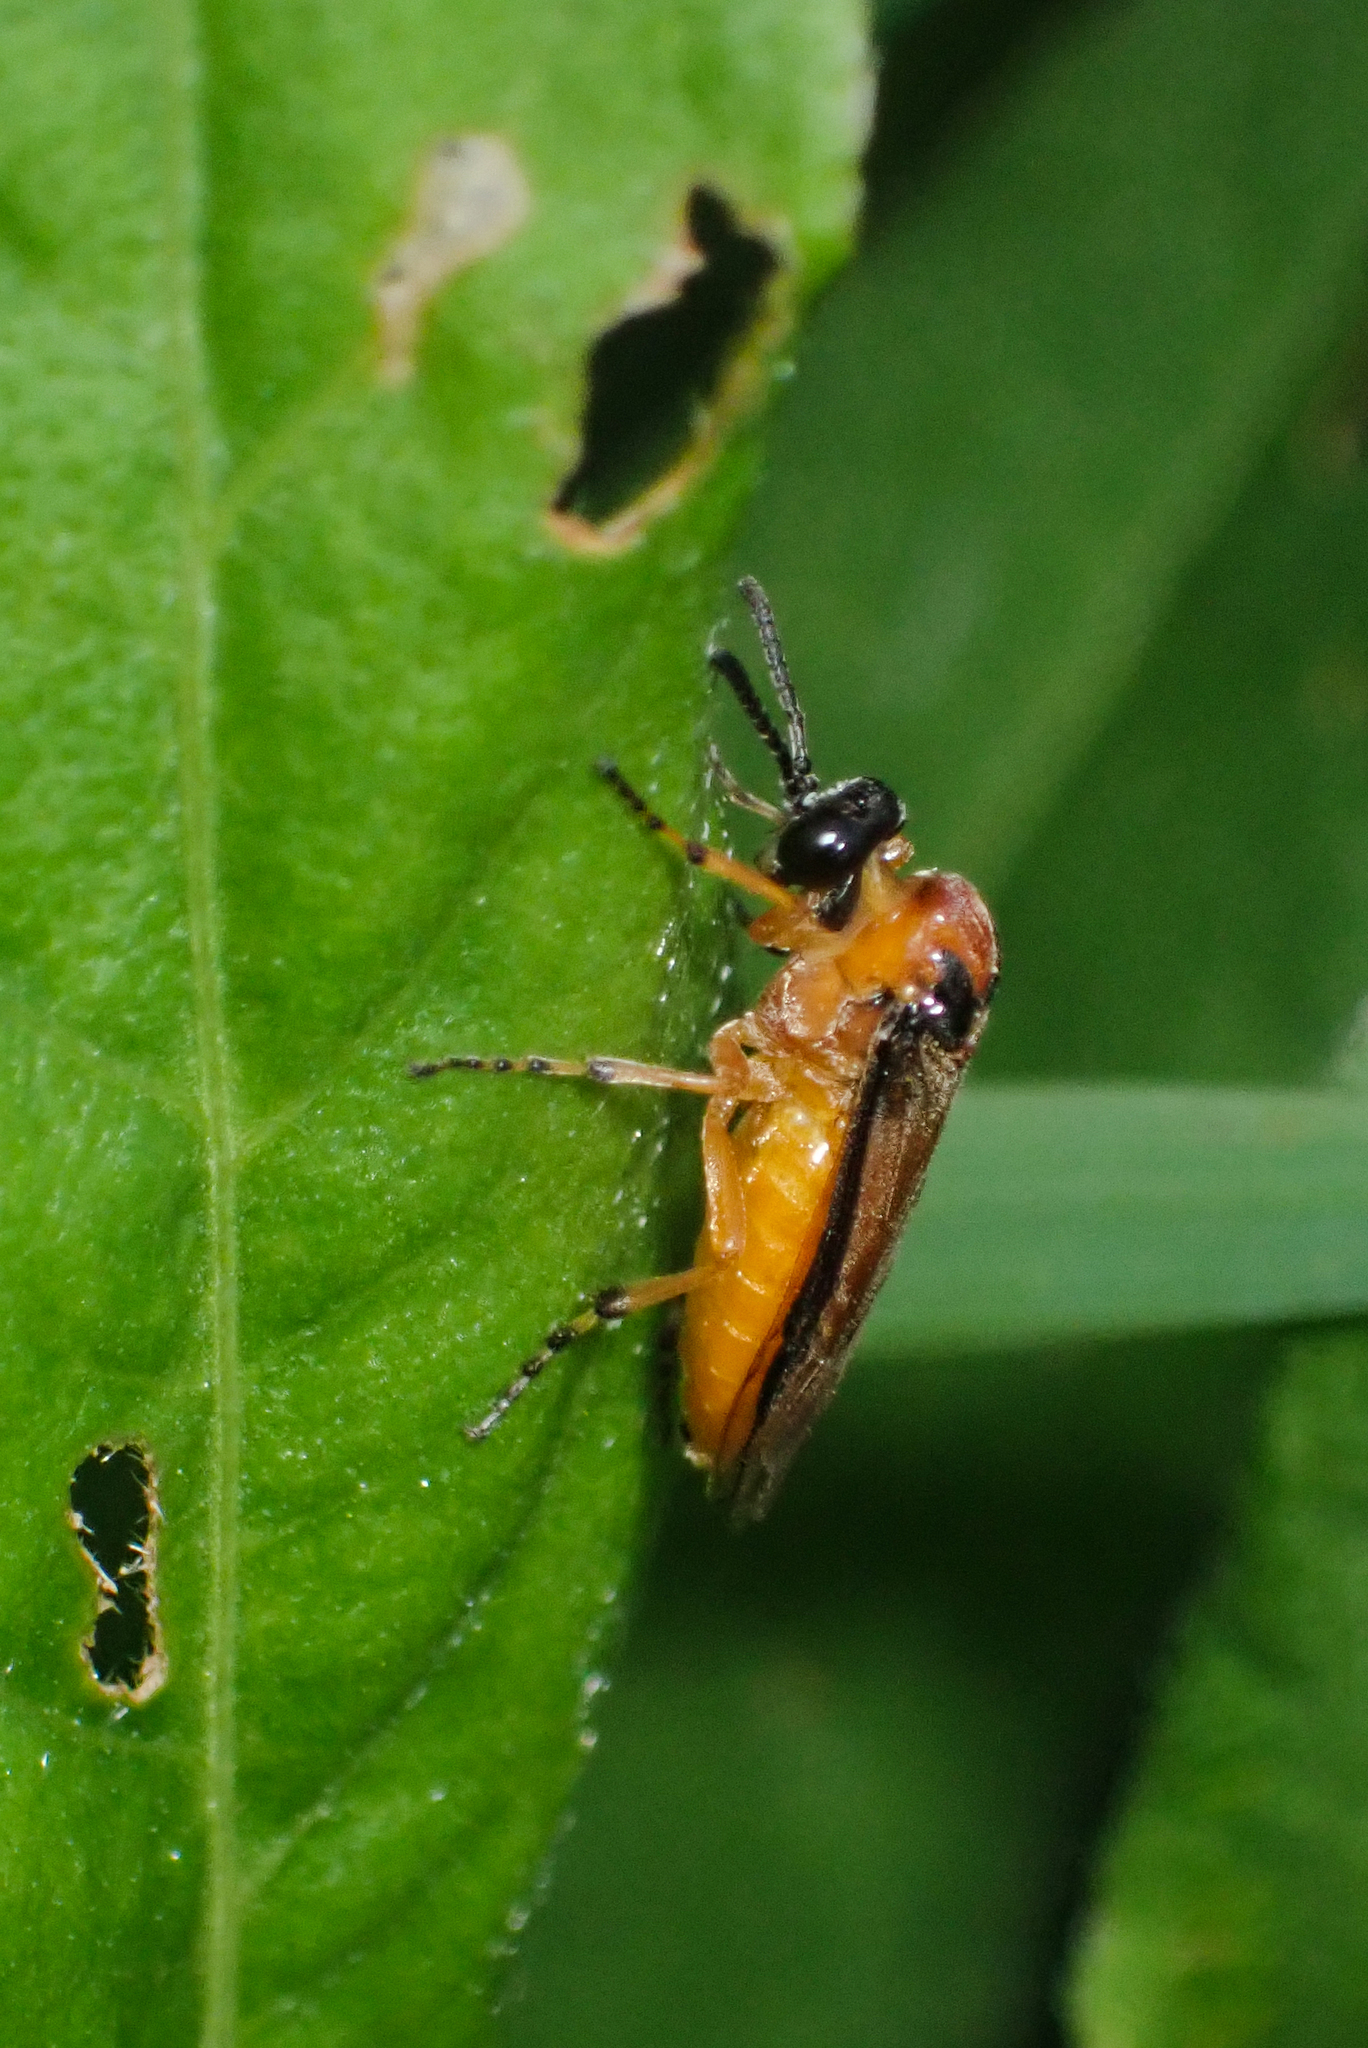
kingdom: Animalia
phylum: Arthropoda
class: Insecta
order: Hymenoptera
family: Tenthredinidae
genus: Athalia
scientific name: Athalia rosae
